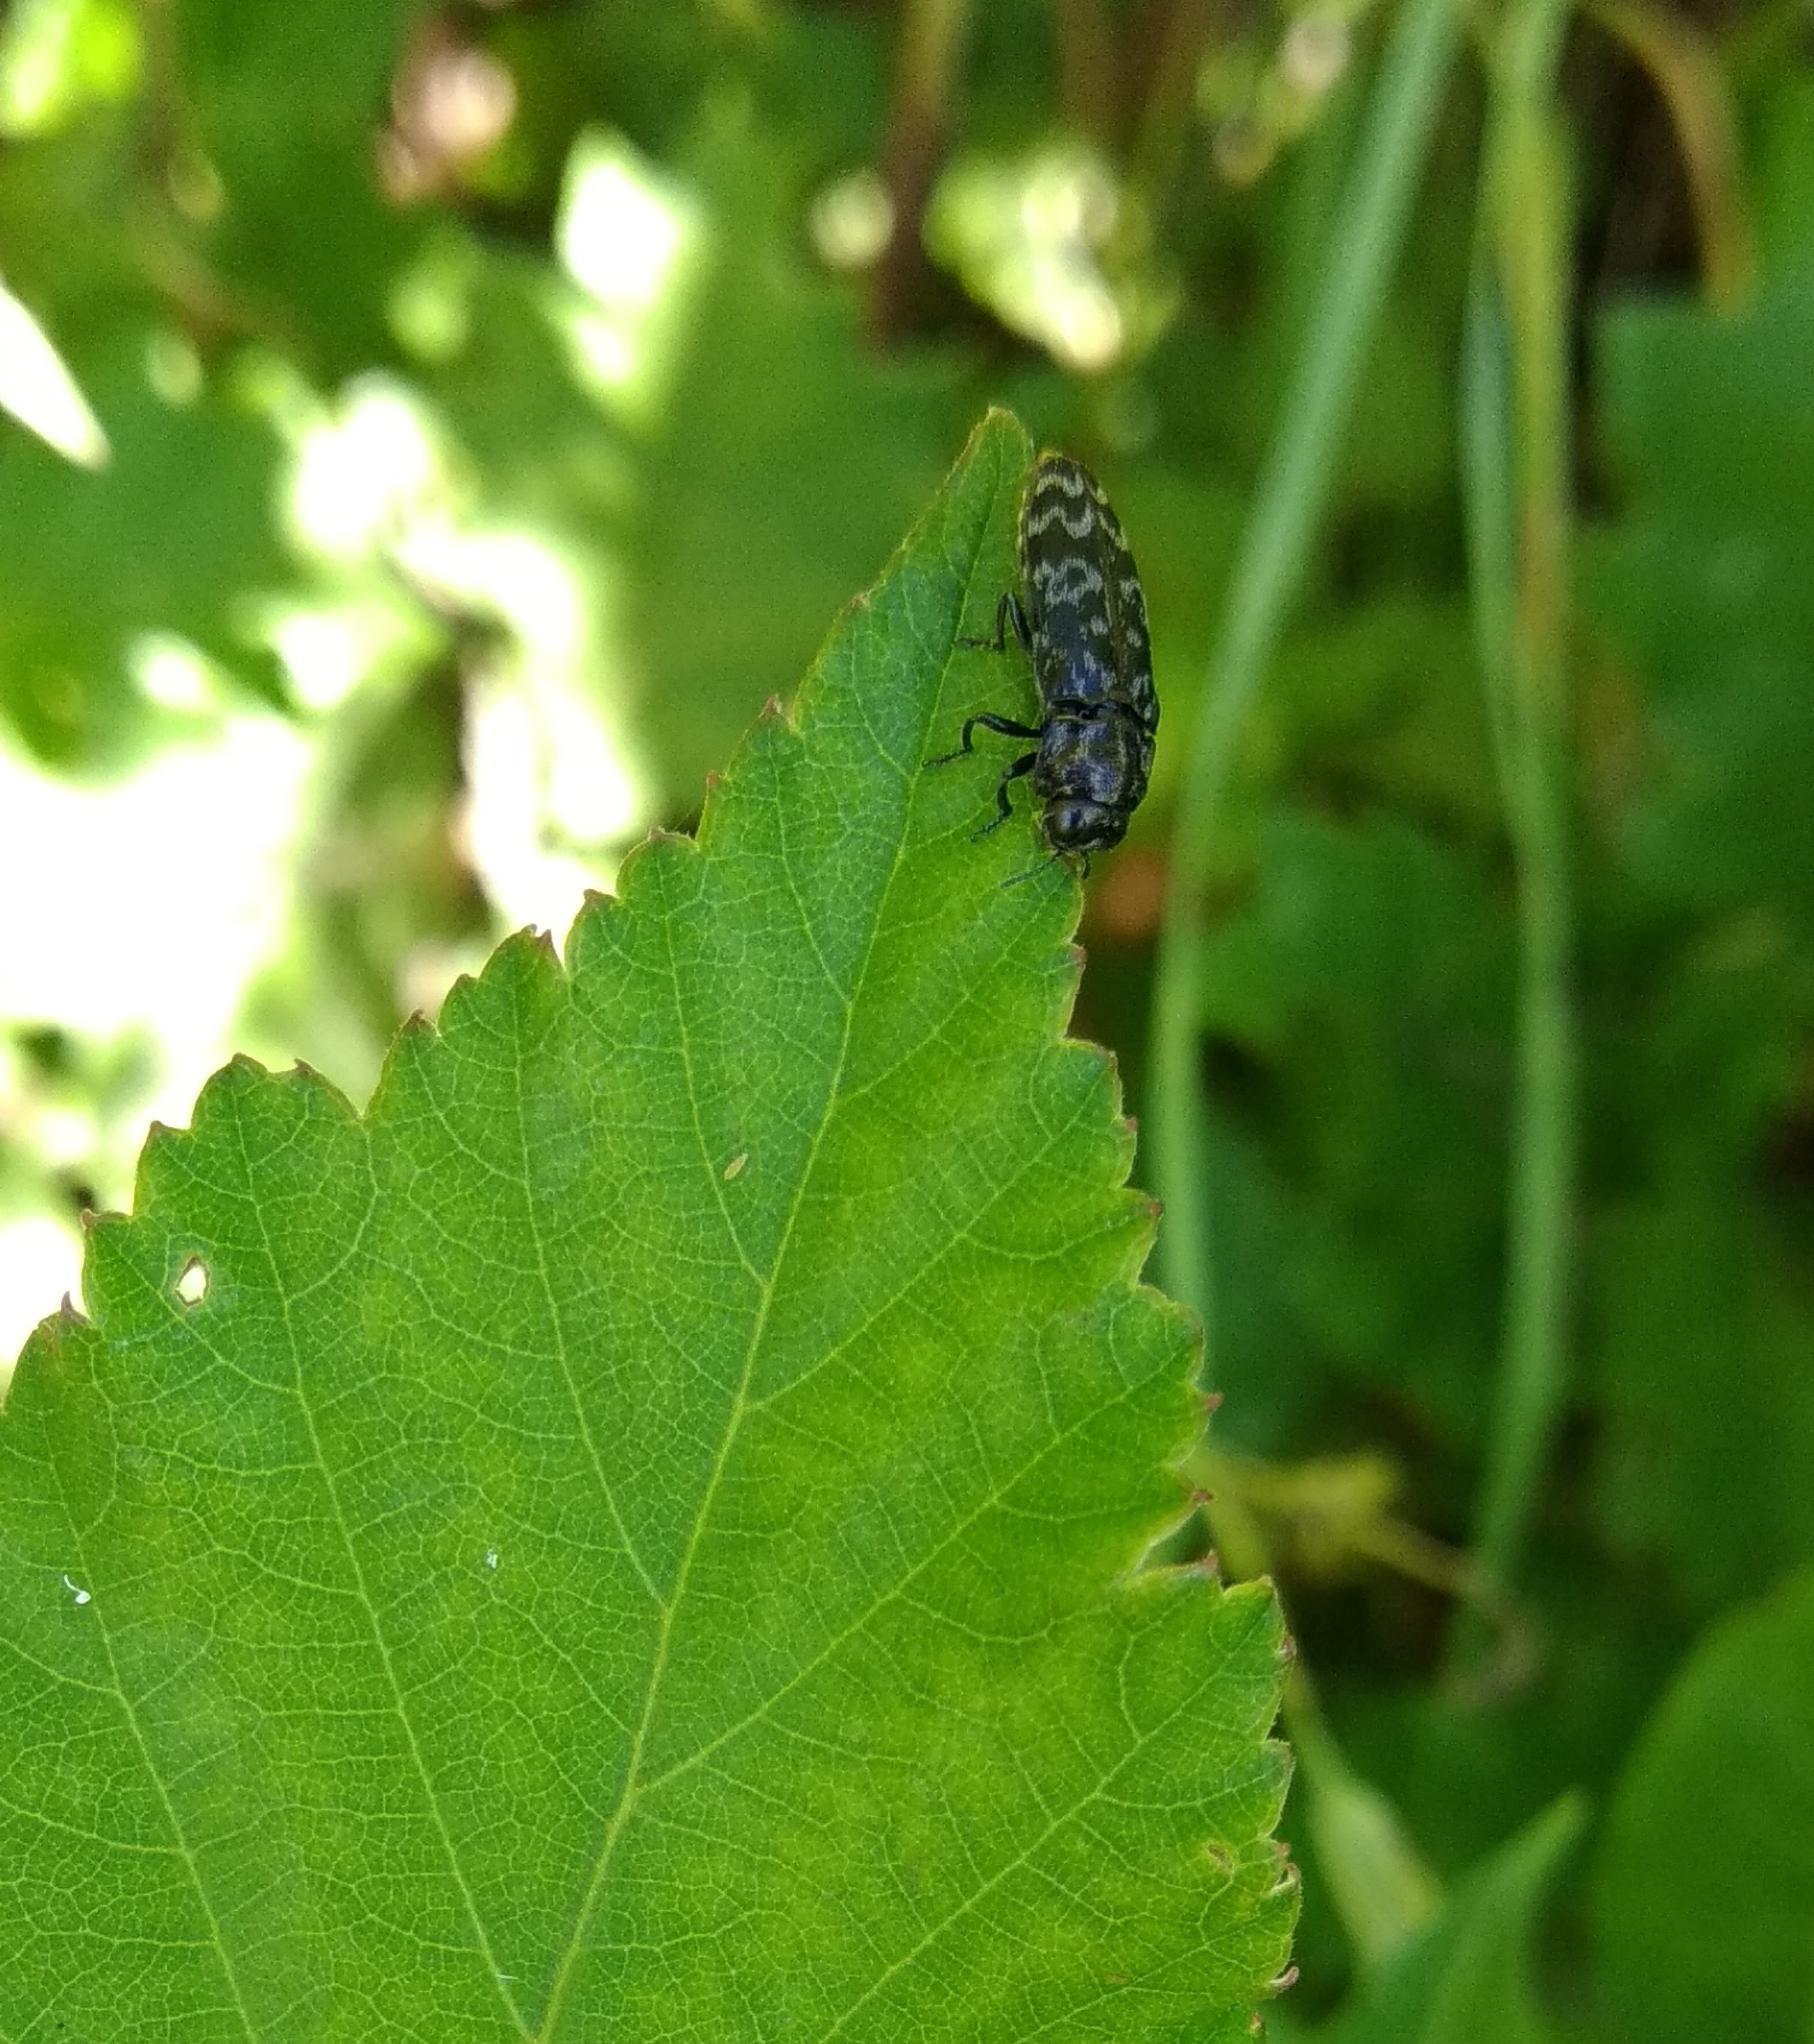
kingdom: Animalia
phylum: Arthropoda
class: Insecta
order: Coleoptera
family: Buprestidae
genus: Coraebus
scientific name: Coraebus rubi
